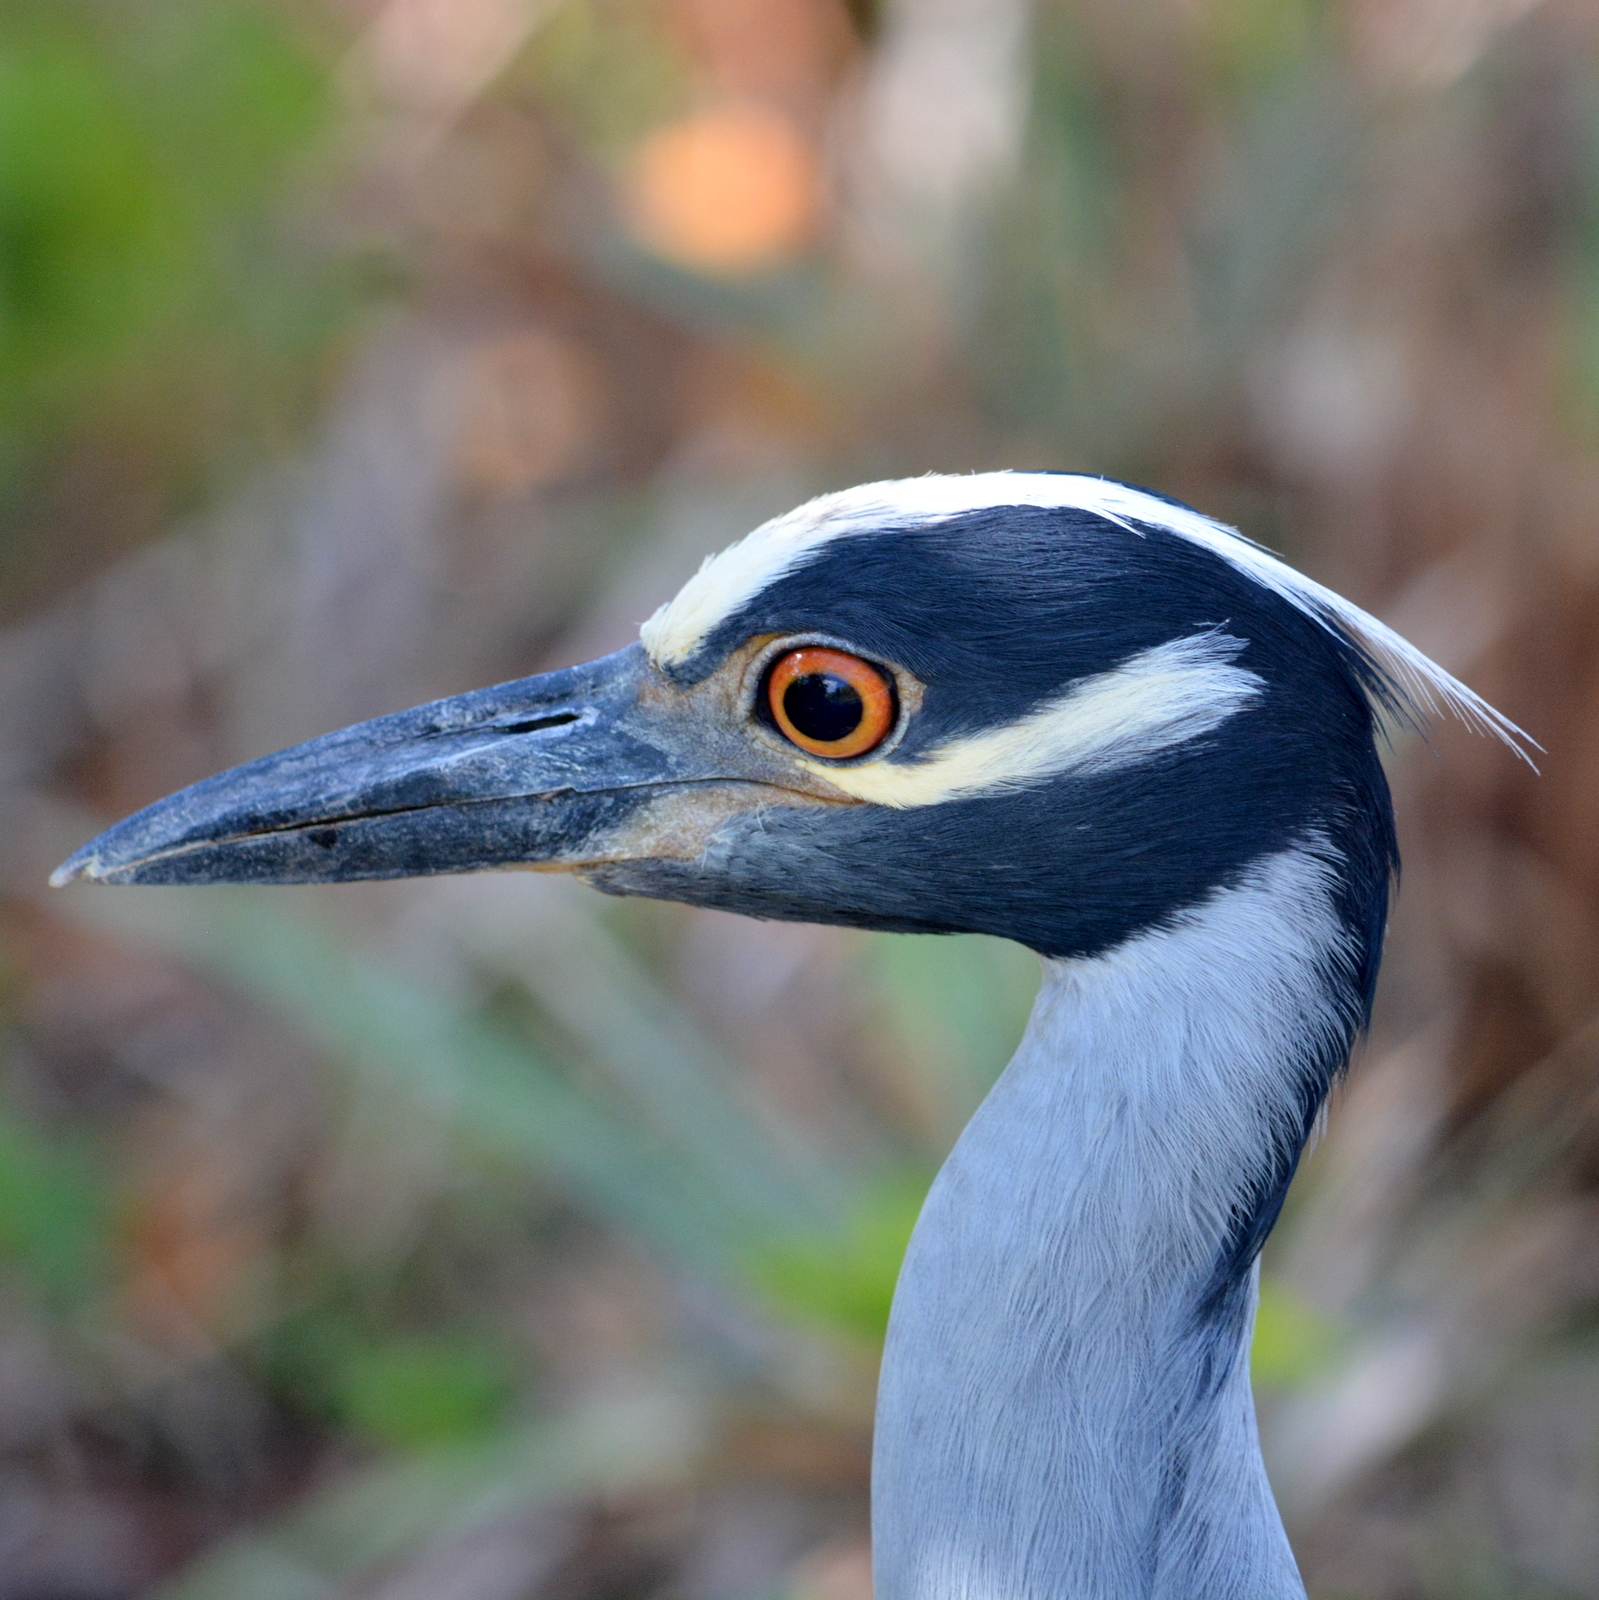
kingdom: Animalia
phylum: Chordata
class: Aves
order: Pelecaniformes
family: Ardeidae
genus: Nyctanassa
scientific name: Nyctanassa violacea
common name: Yellow-crowned night heron
